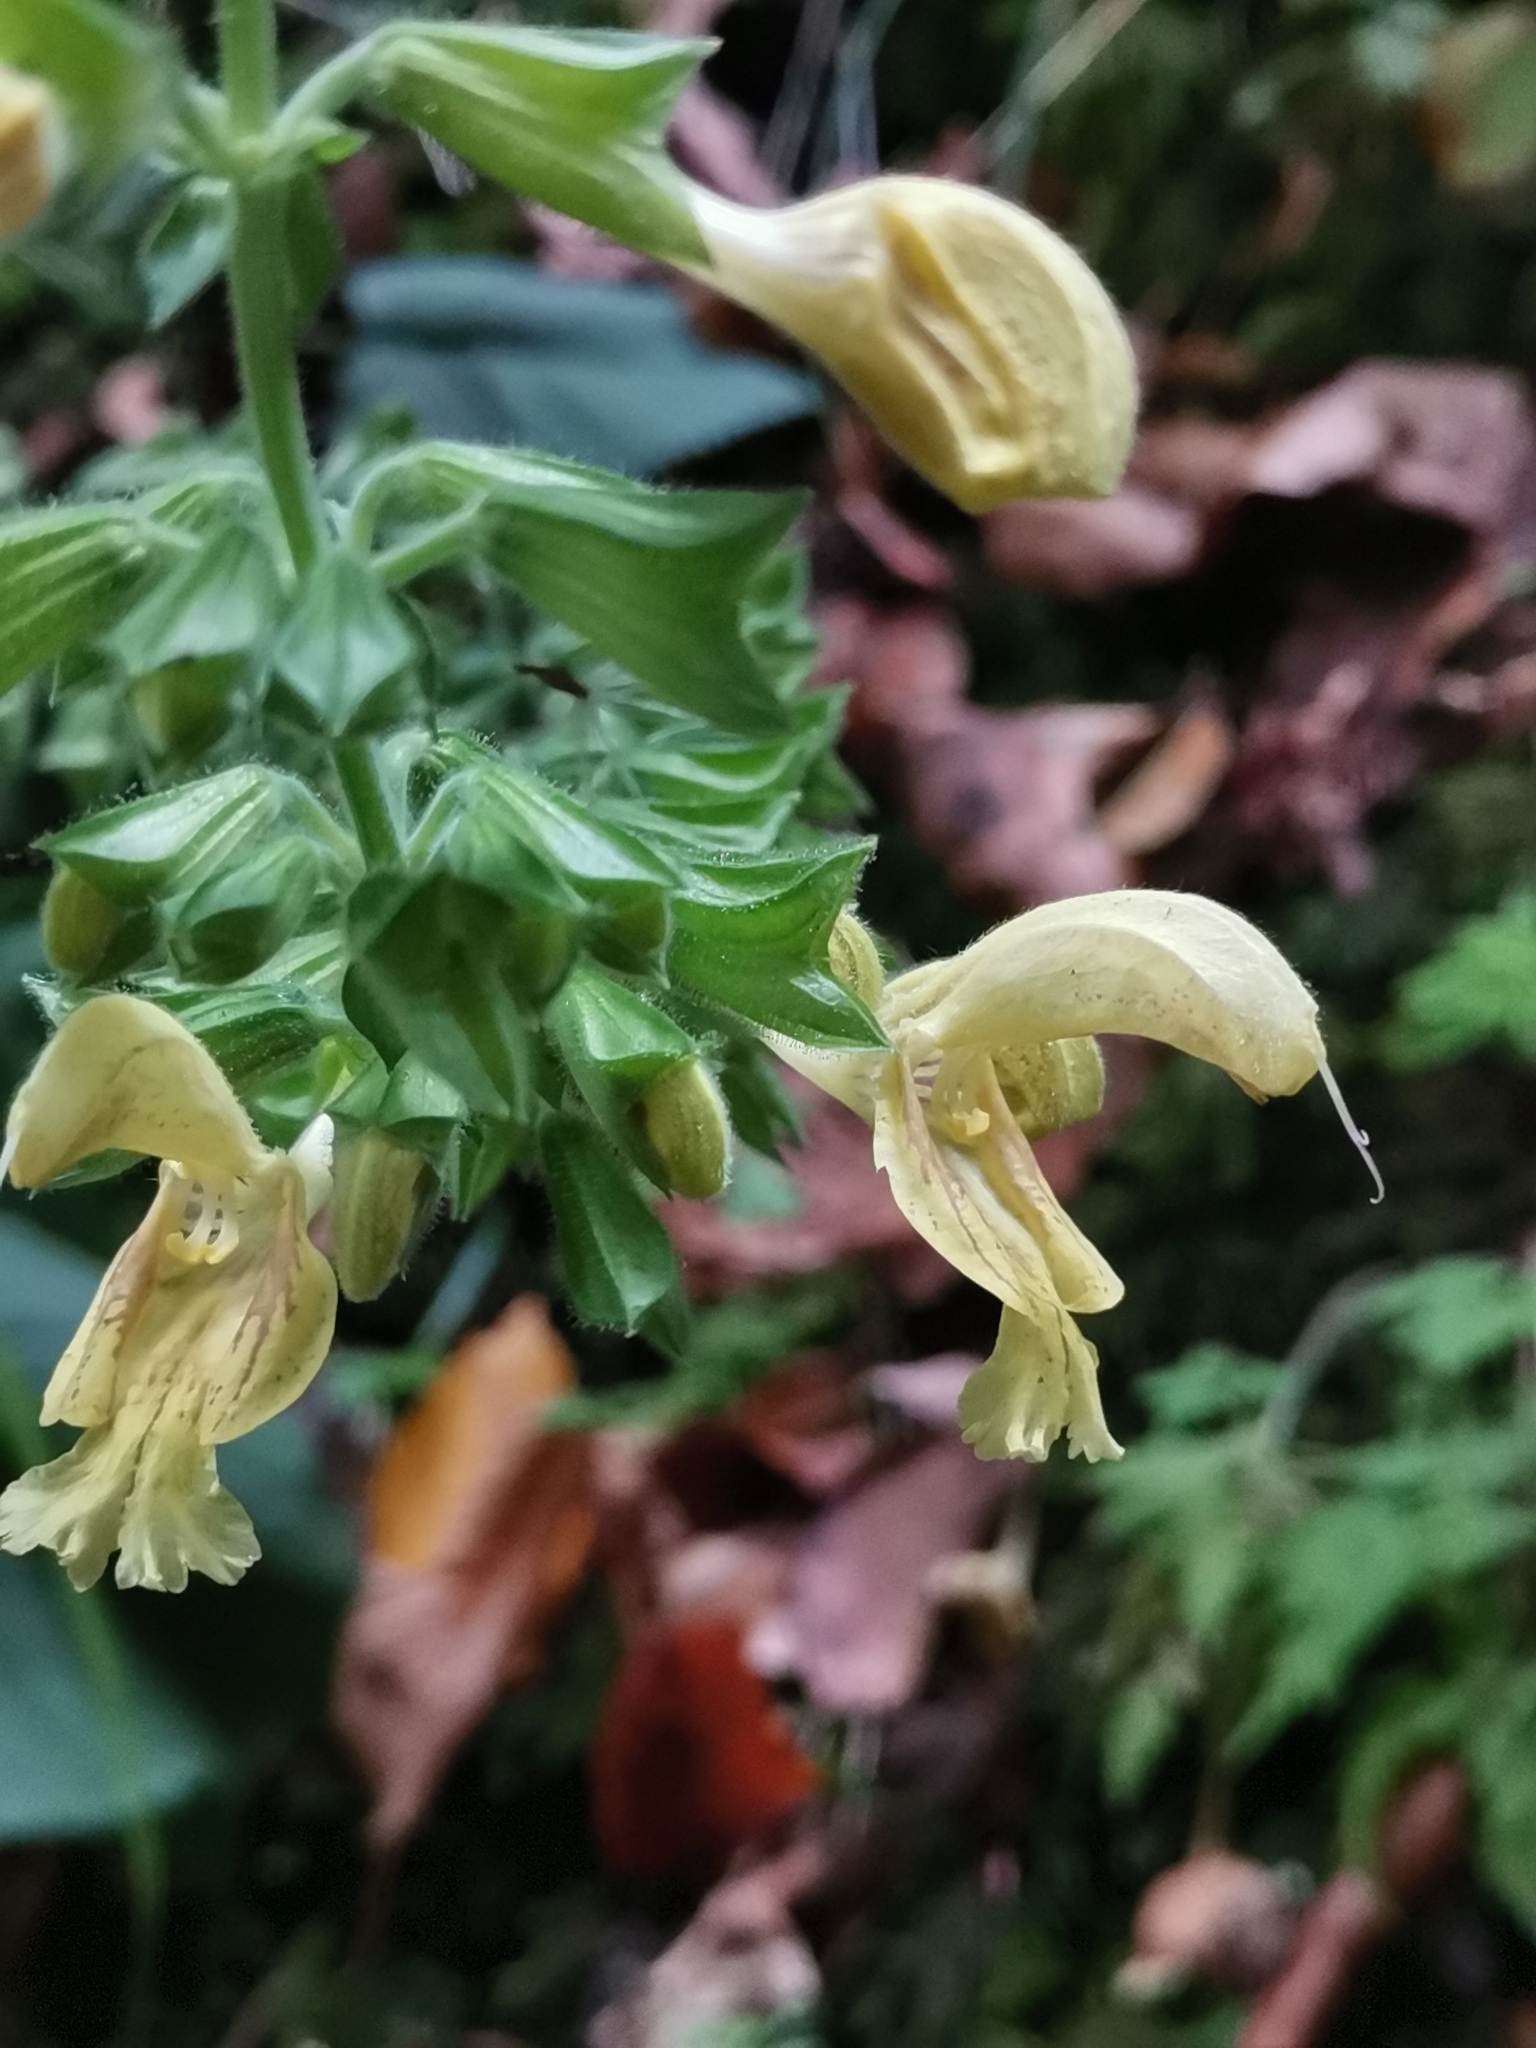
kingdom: Plantae
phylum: Tracheophyta
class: Magnoliopsida
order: Lamiales
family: Lamiaceae
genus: Salvia
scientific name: Salvia glutinosa
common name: Sticky clary
